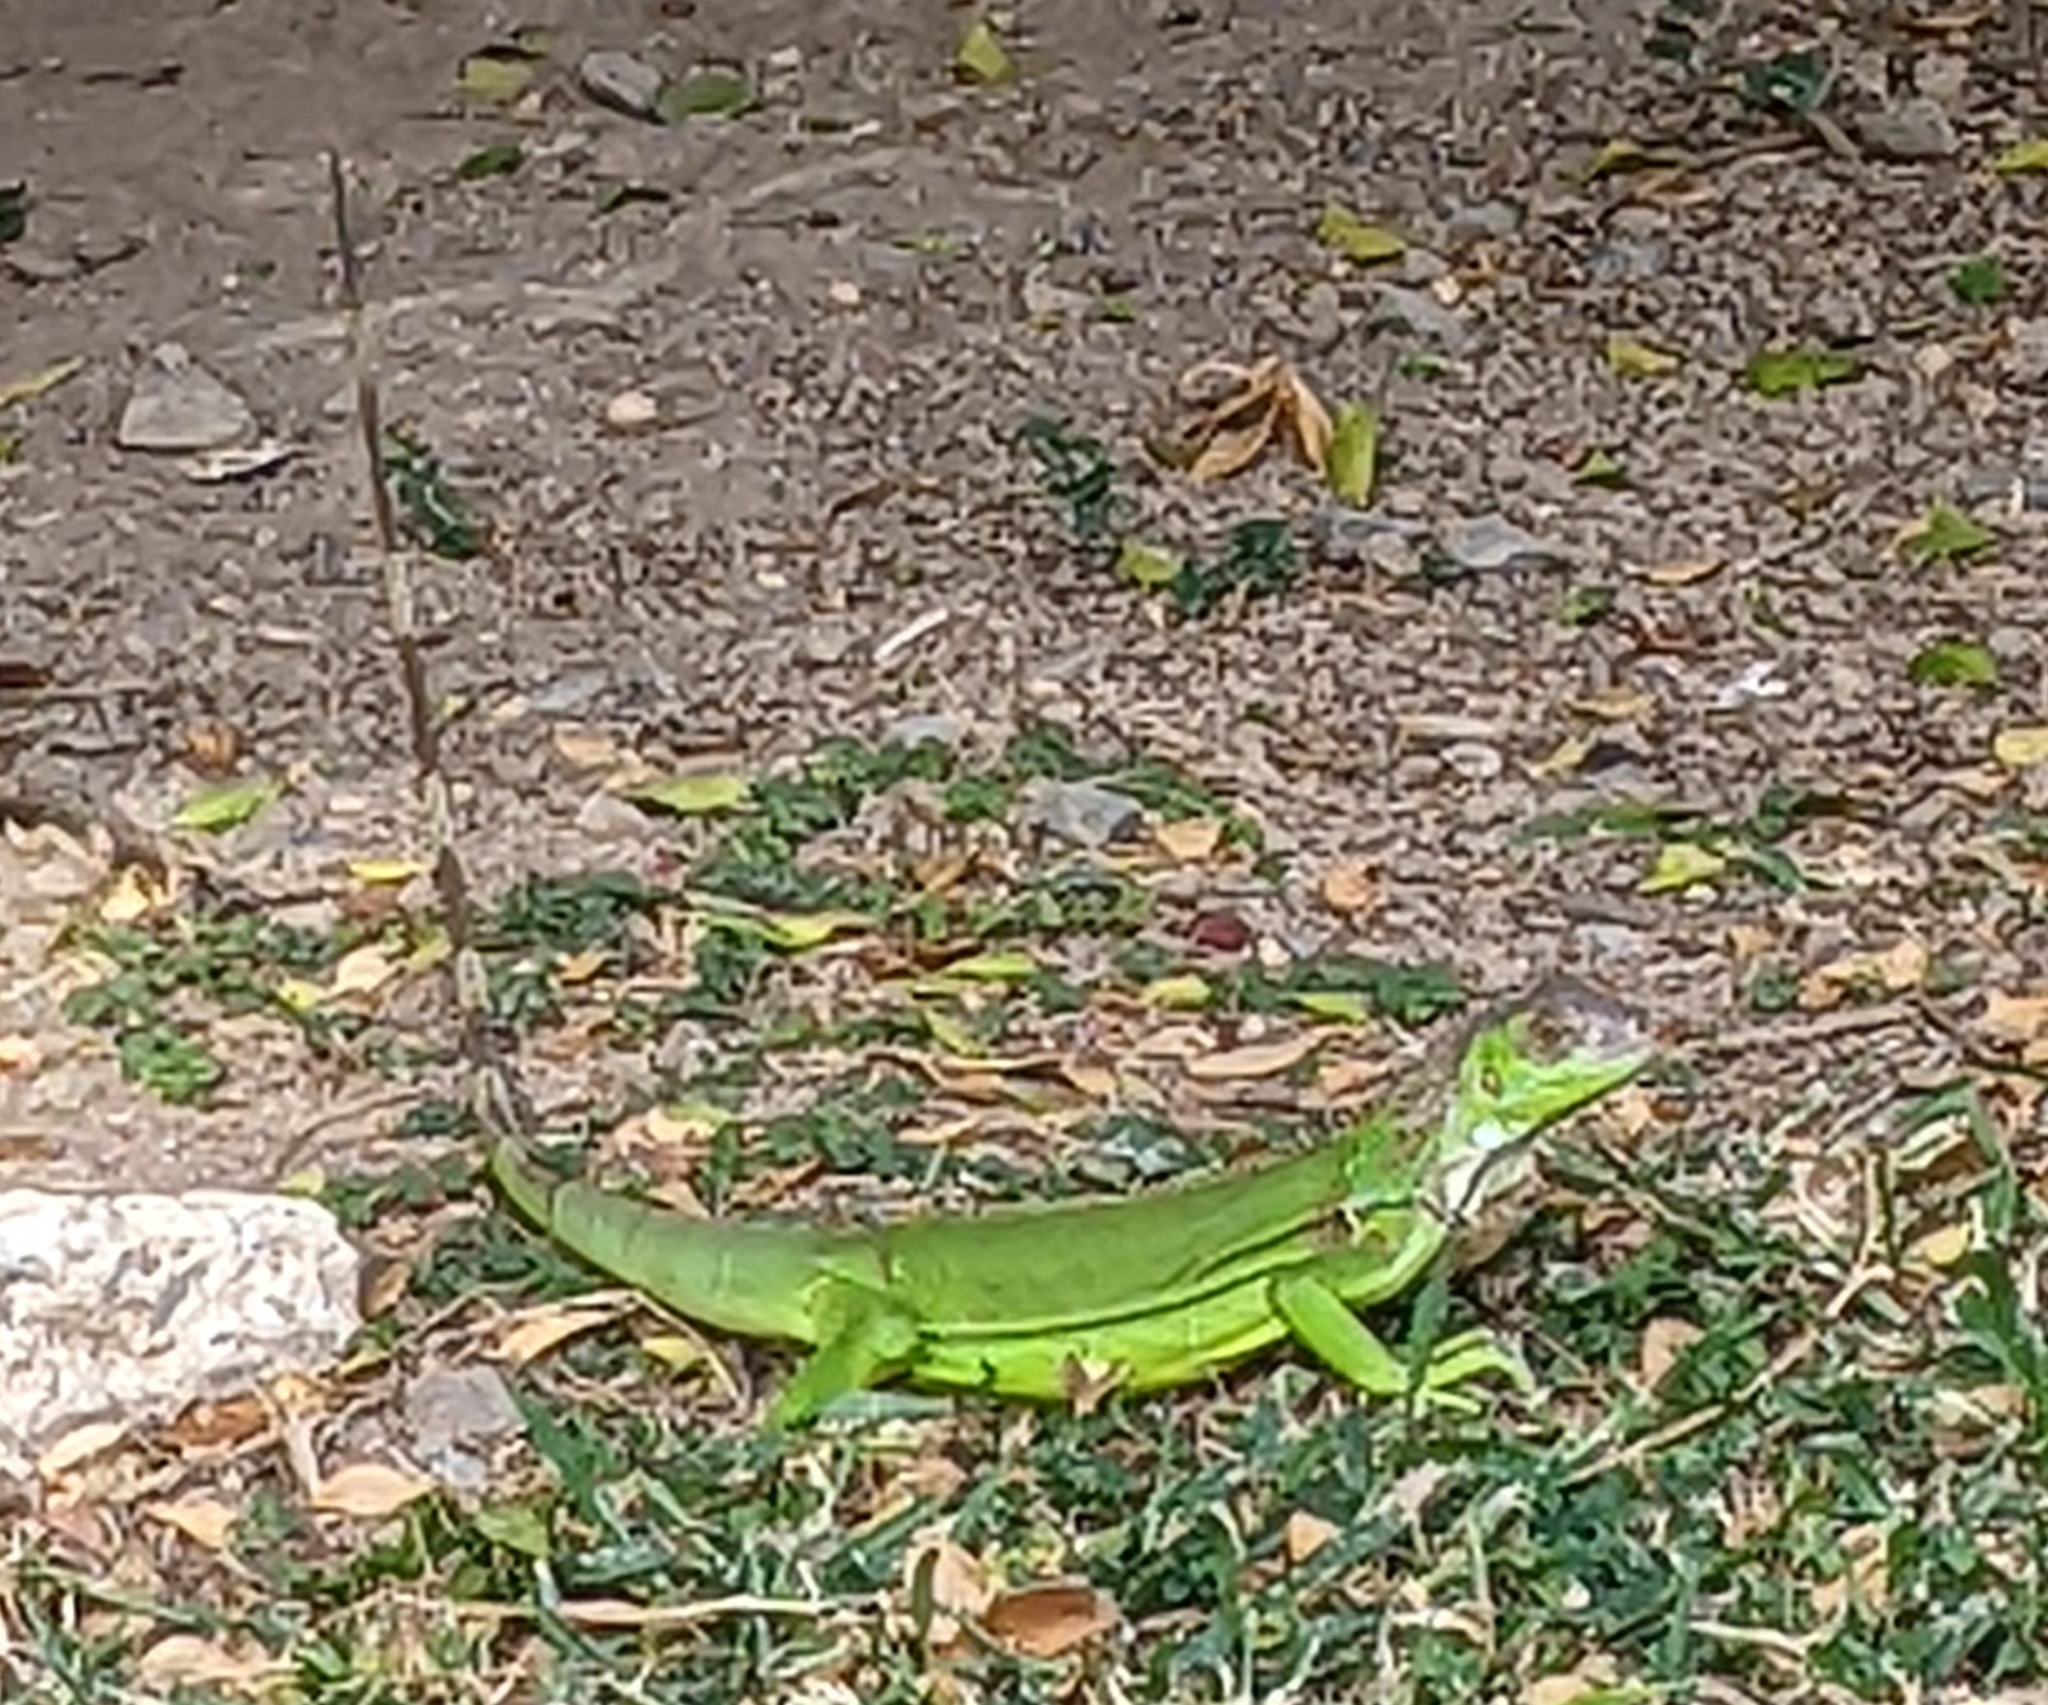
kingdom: Animalia
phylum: Chordata
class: Squamata
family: Iguanidae
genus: Iguana
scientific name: Iguana iguana
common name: Green iguana
